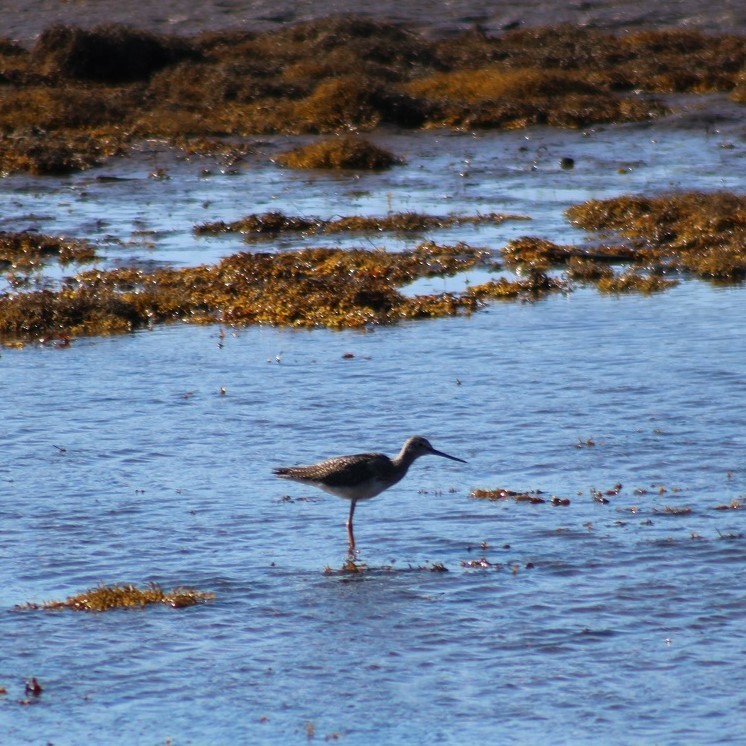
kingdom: Animalia
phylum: Chordata
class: Aves
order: Charadriiformes
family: Scolopacidae
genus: Tringa
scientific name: Tringa flavipes
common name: Lesser yellowlegs
